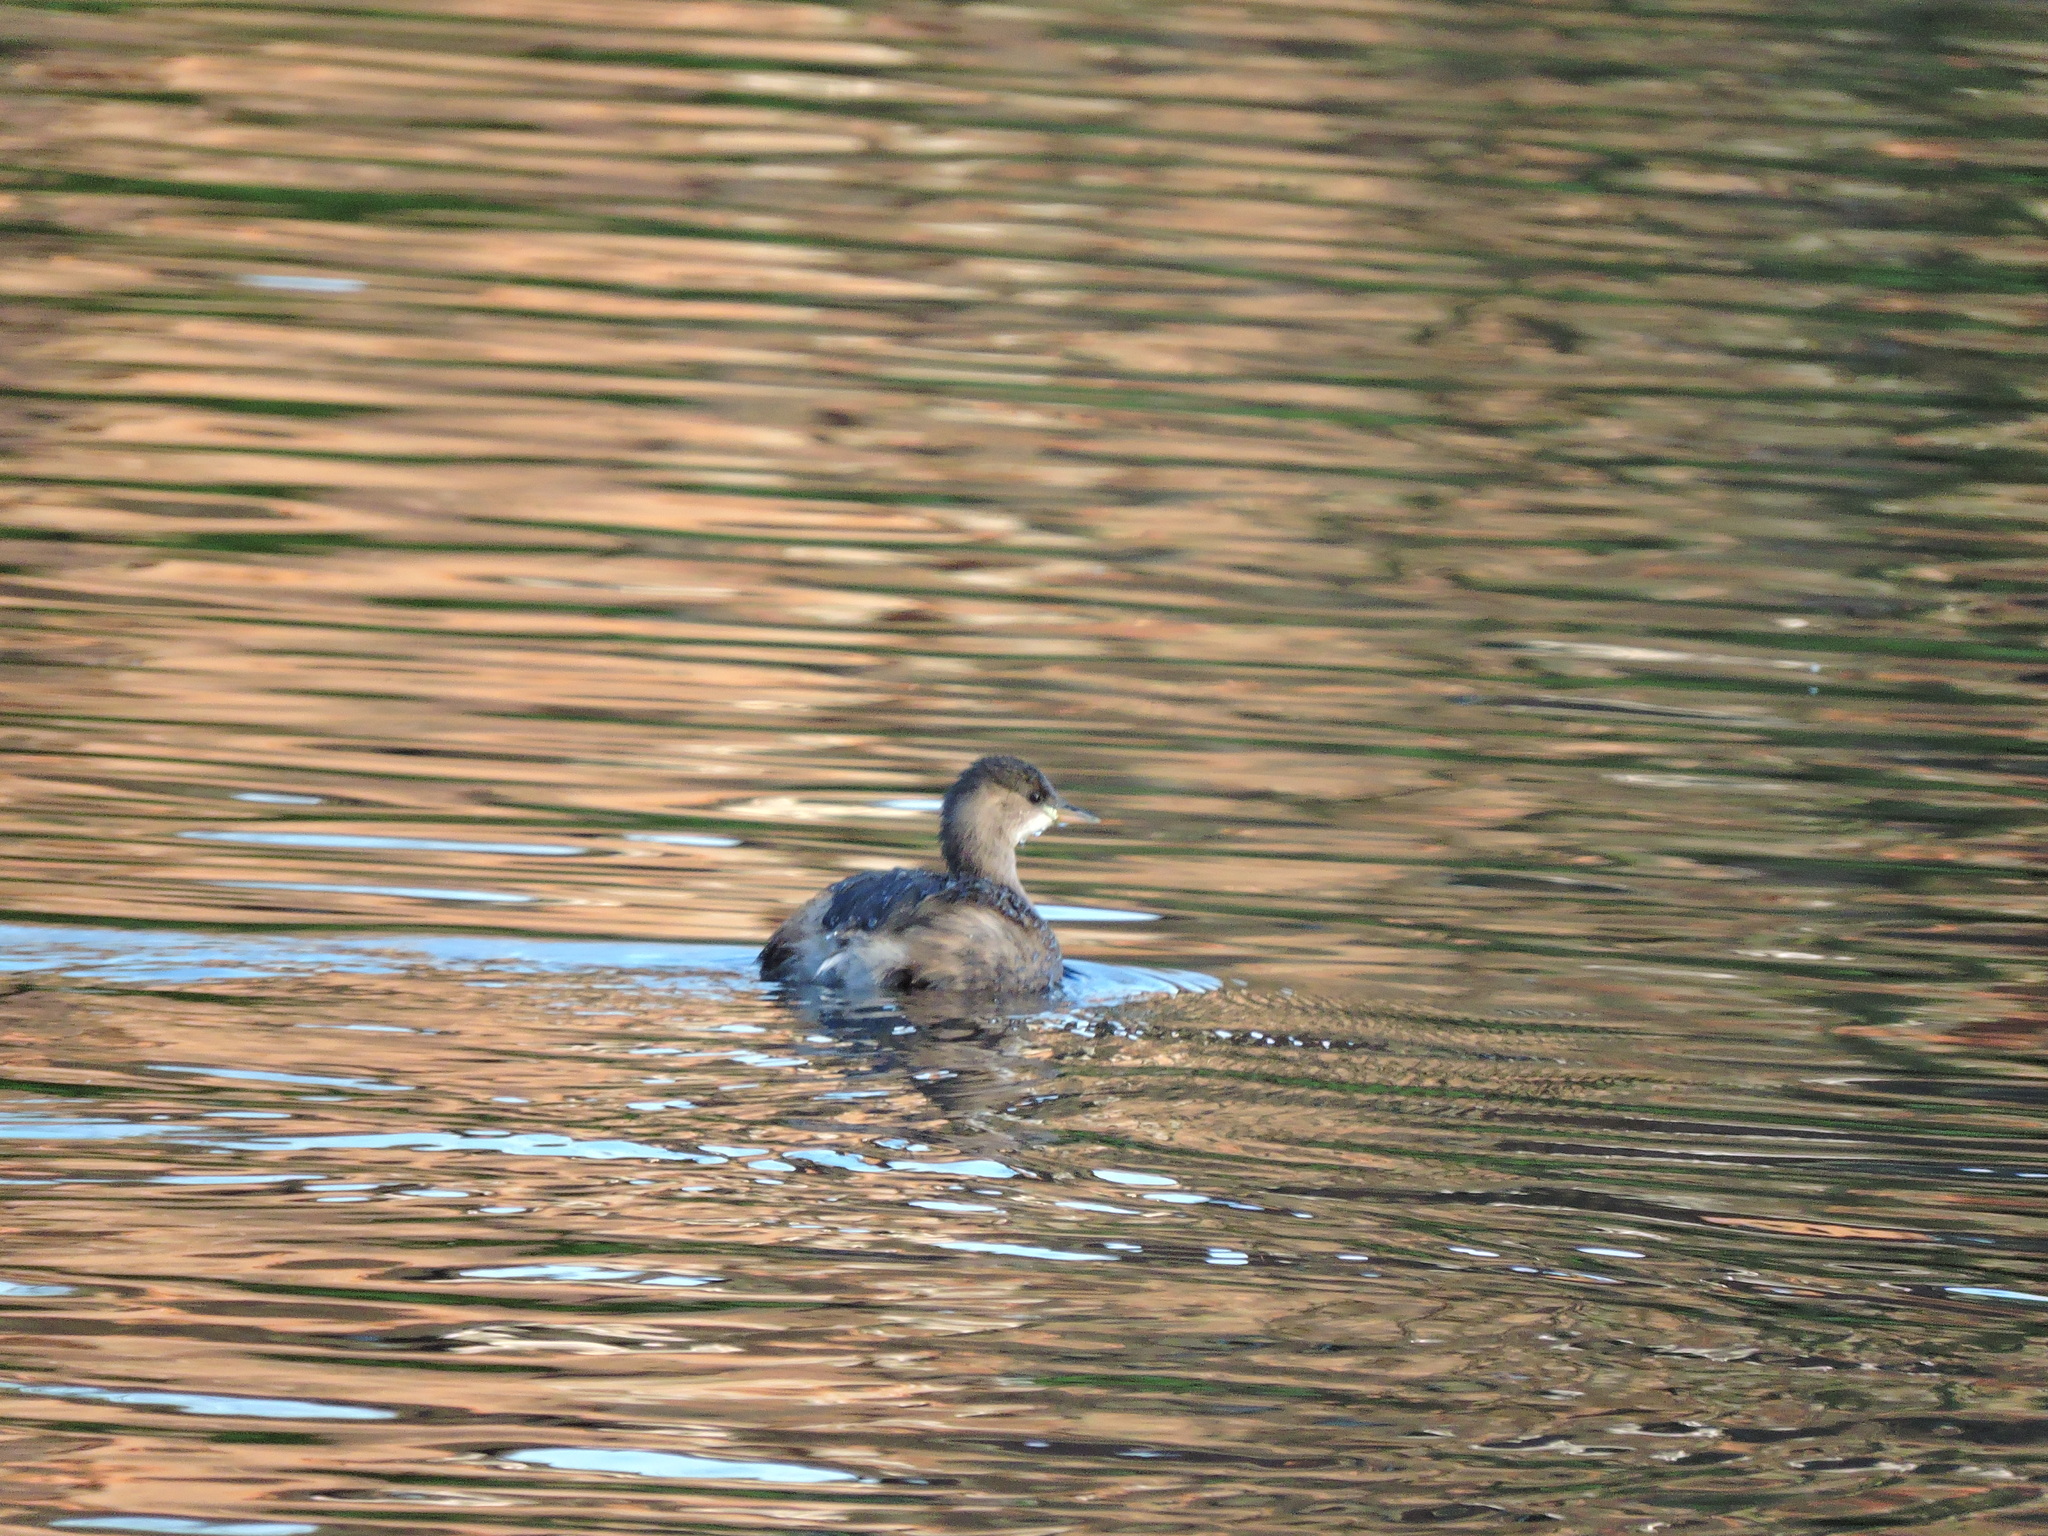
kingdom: Animalia
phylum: Chordata
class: Aves
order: Podicipediformes
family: Podicipedidae
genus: Tachybaptus
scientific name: Tachybaptus ruficollis
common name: Little grebe
